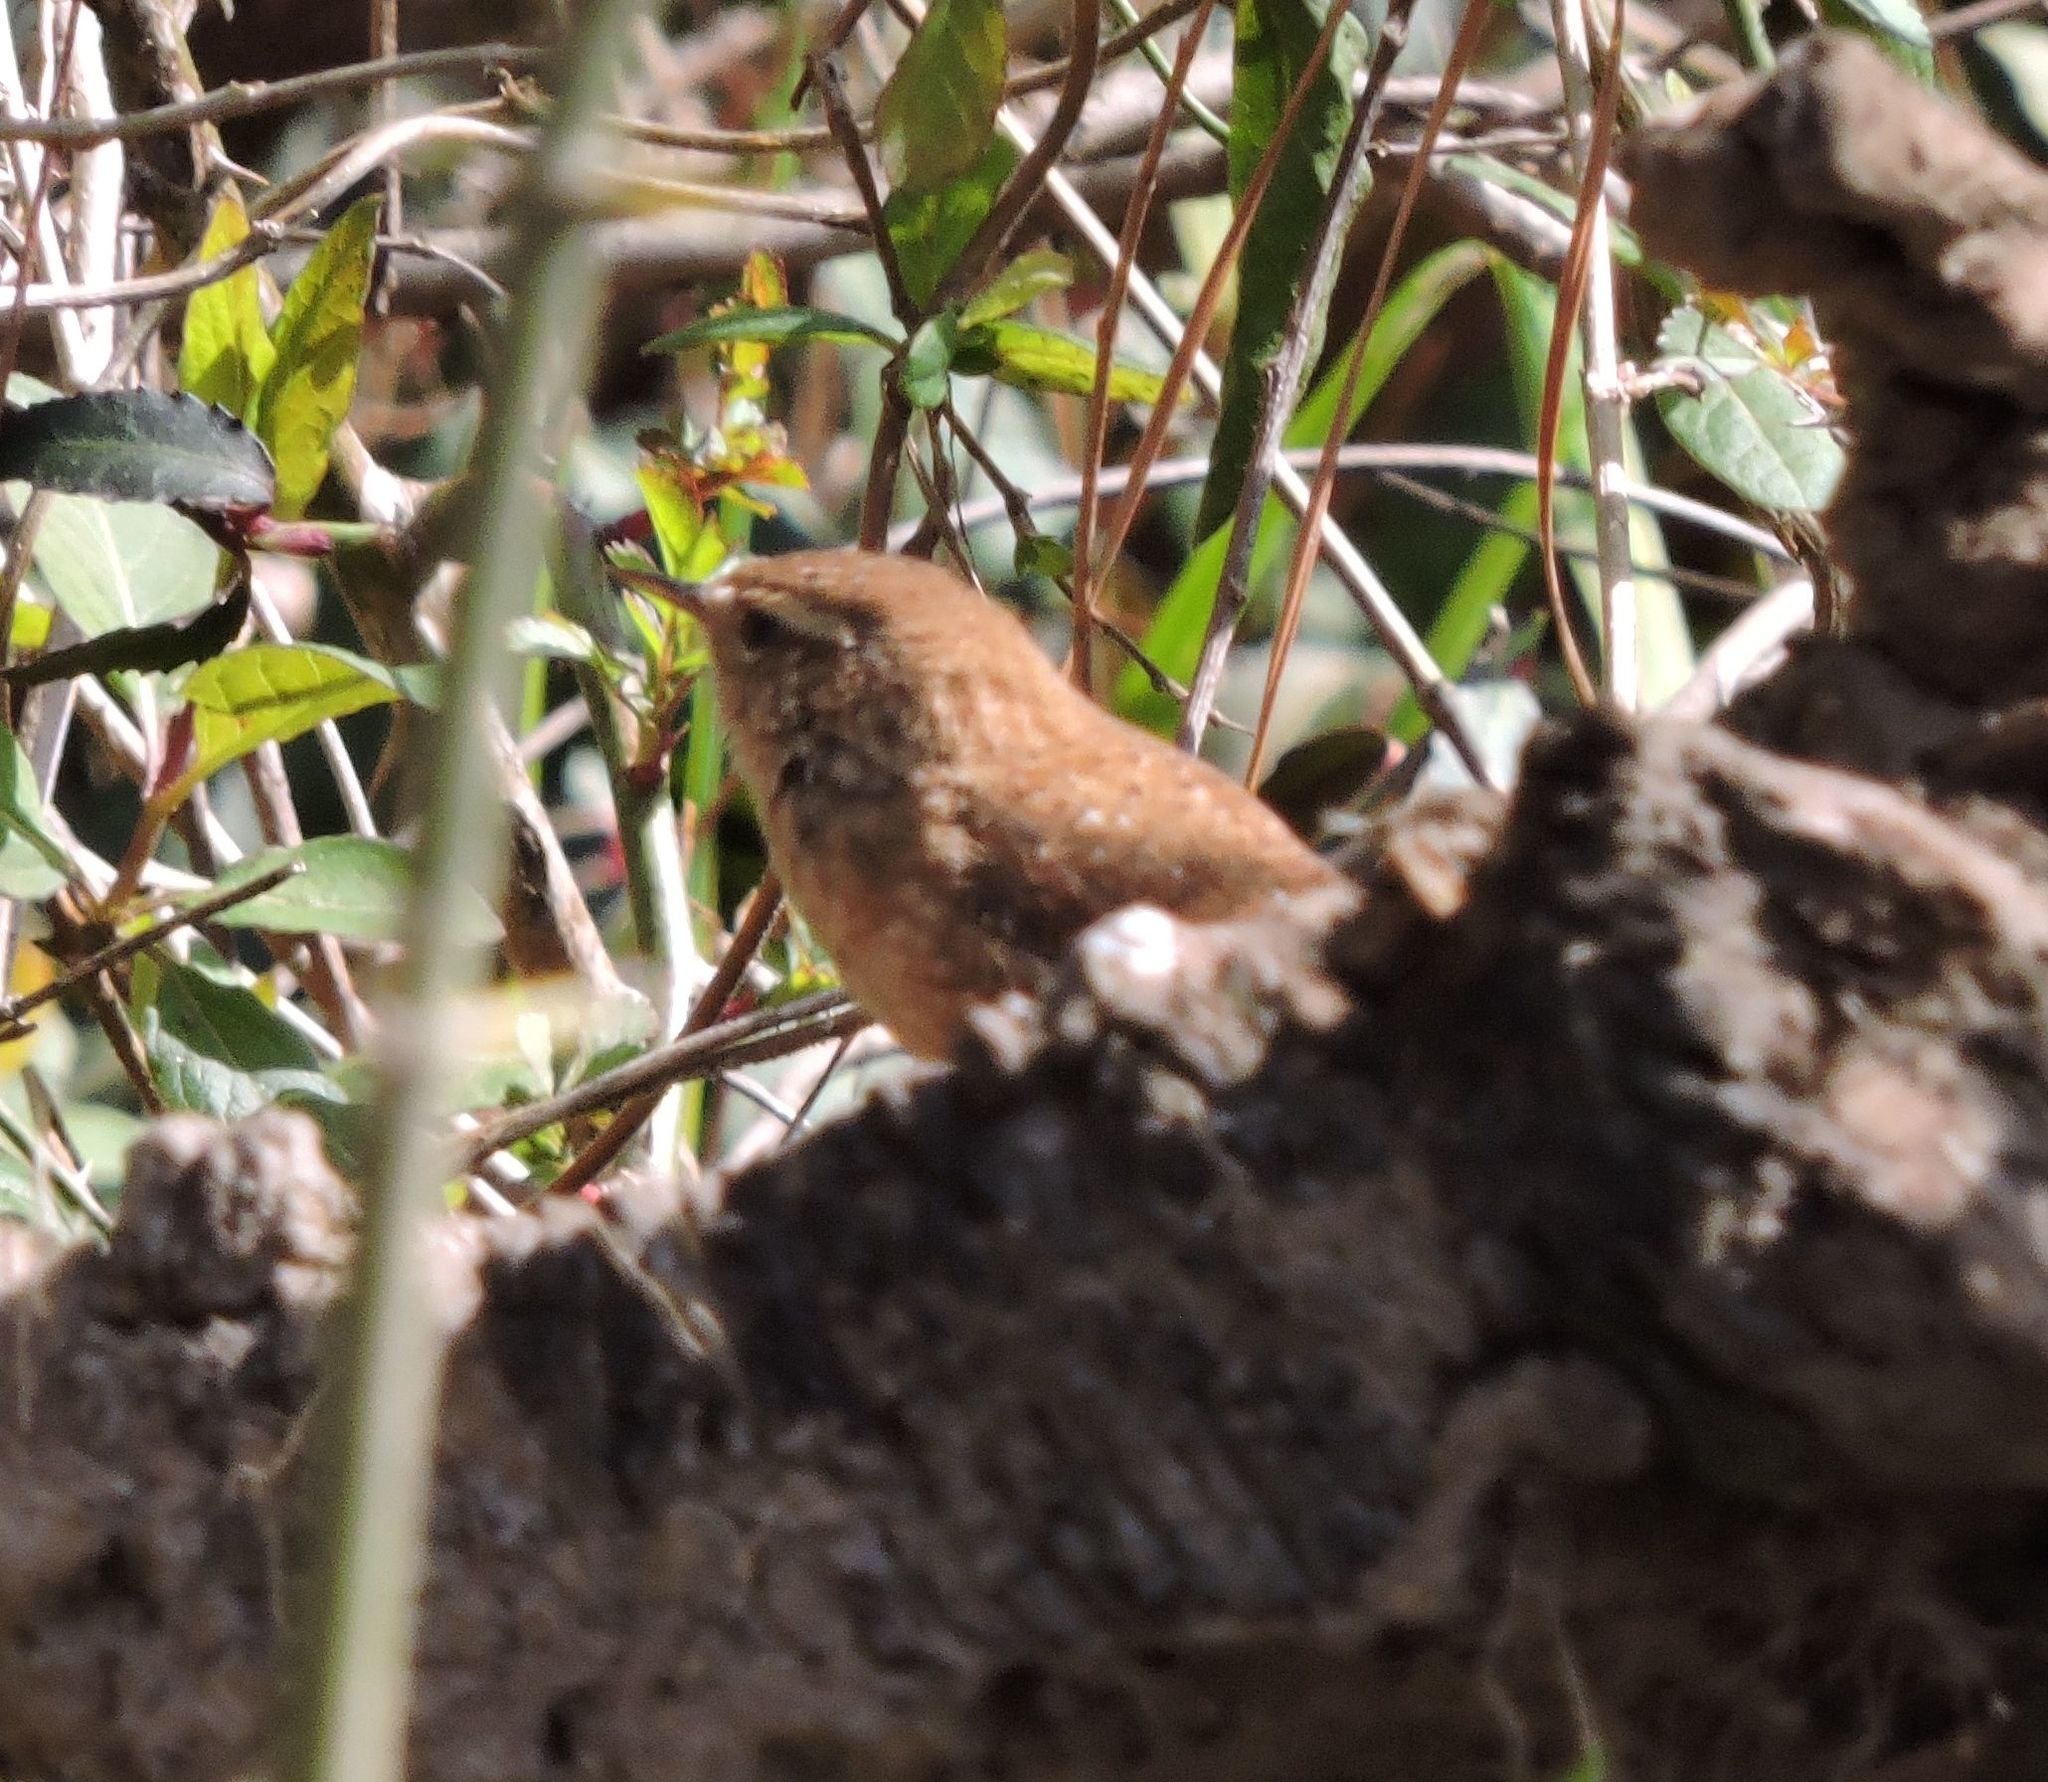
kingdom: Animalia
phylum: Chordata
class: Aves
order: Passeriformes
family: Troglodytidae
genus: Troglodytes
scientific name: Troglodytes hiemalis
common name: Winter wren
